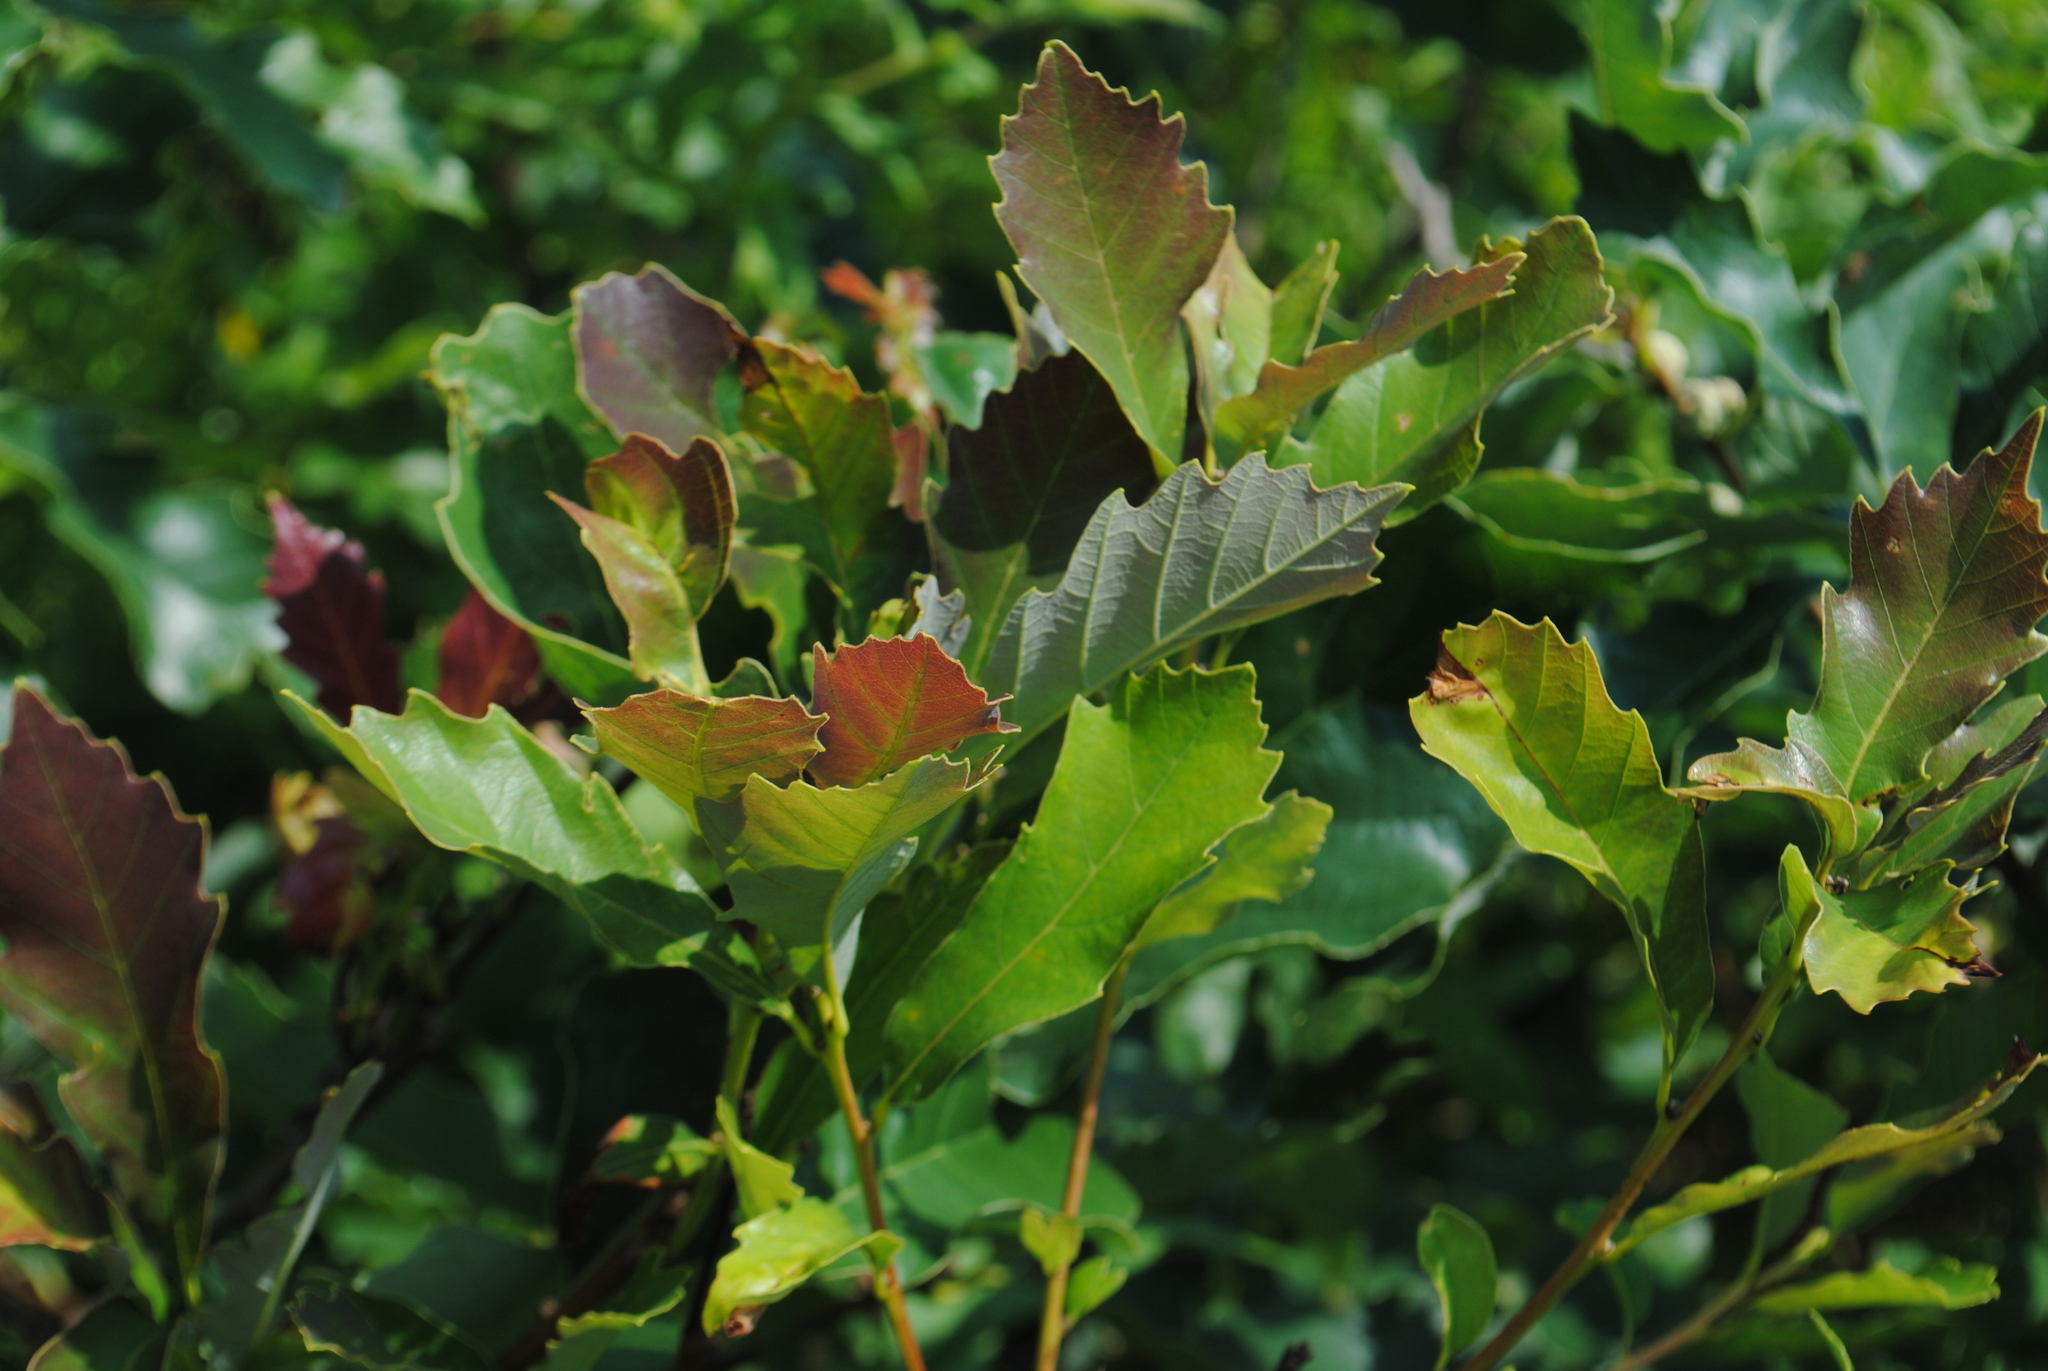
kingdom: Plantae
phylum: Tracheophyta
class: Magnoliopsida
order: Fagales
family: Fagaceae
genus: Quercus
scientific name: Quercus prinoides
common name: Dwarf chinkapin oak
